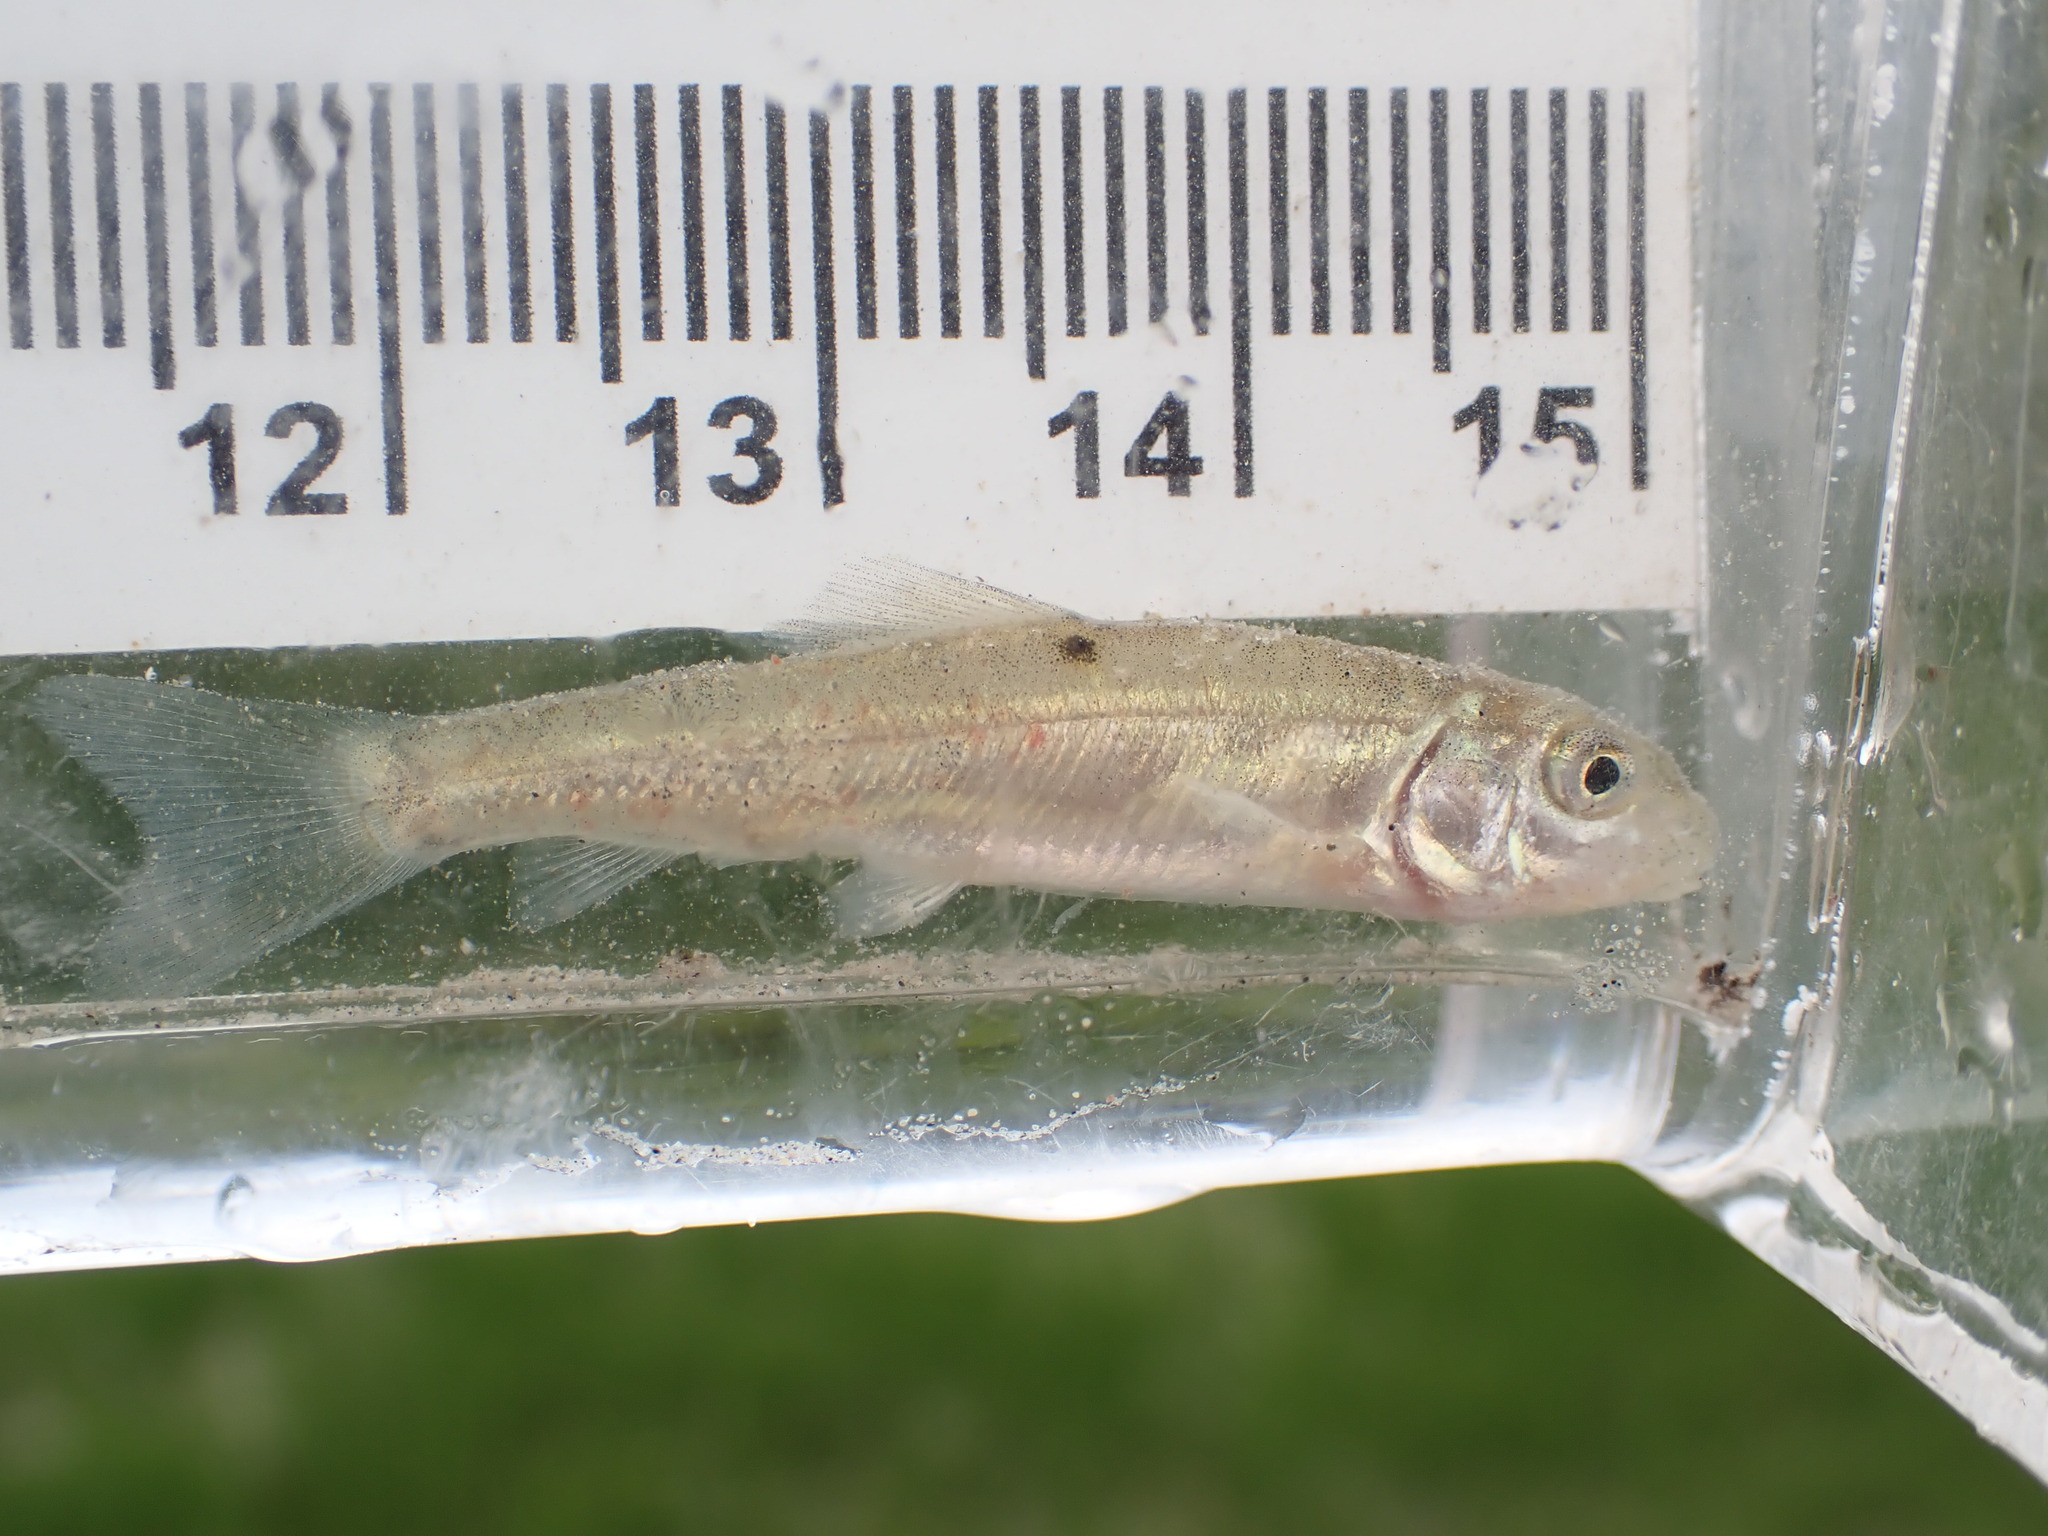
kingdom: Animalia
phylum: Chordata
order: Cypriniformes
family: Catostomidae
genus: Catostomus
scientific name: Catostomus commersonii
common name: White sucker
